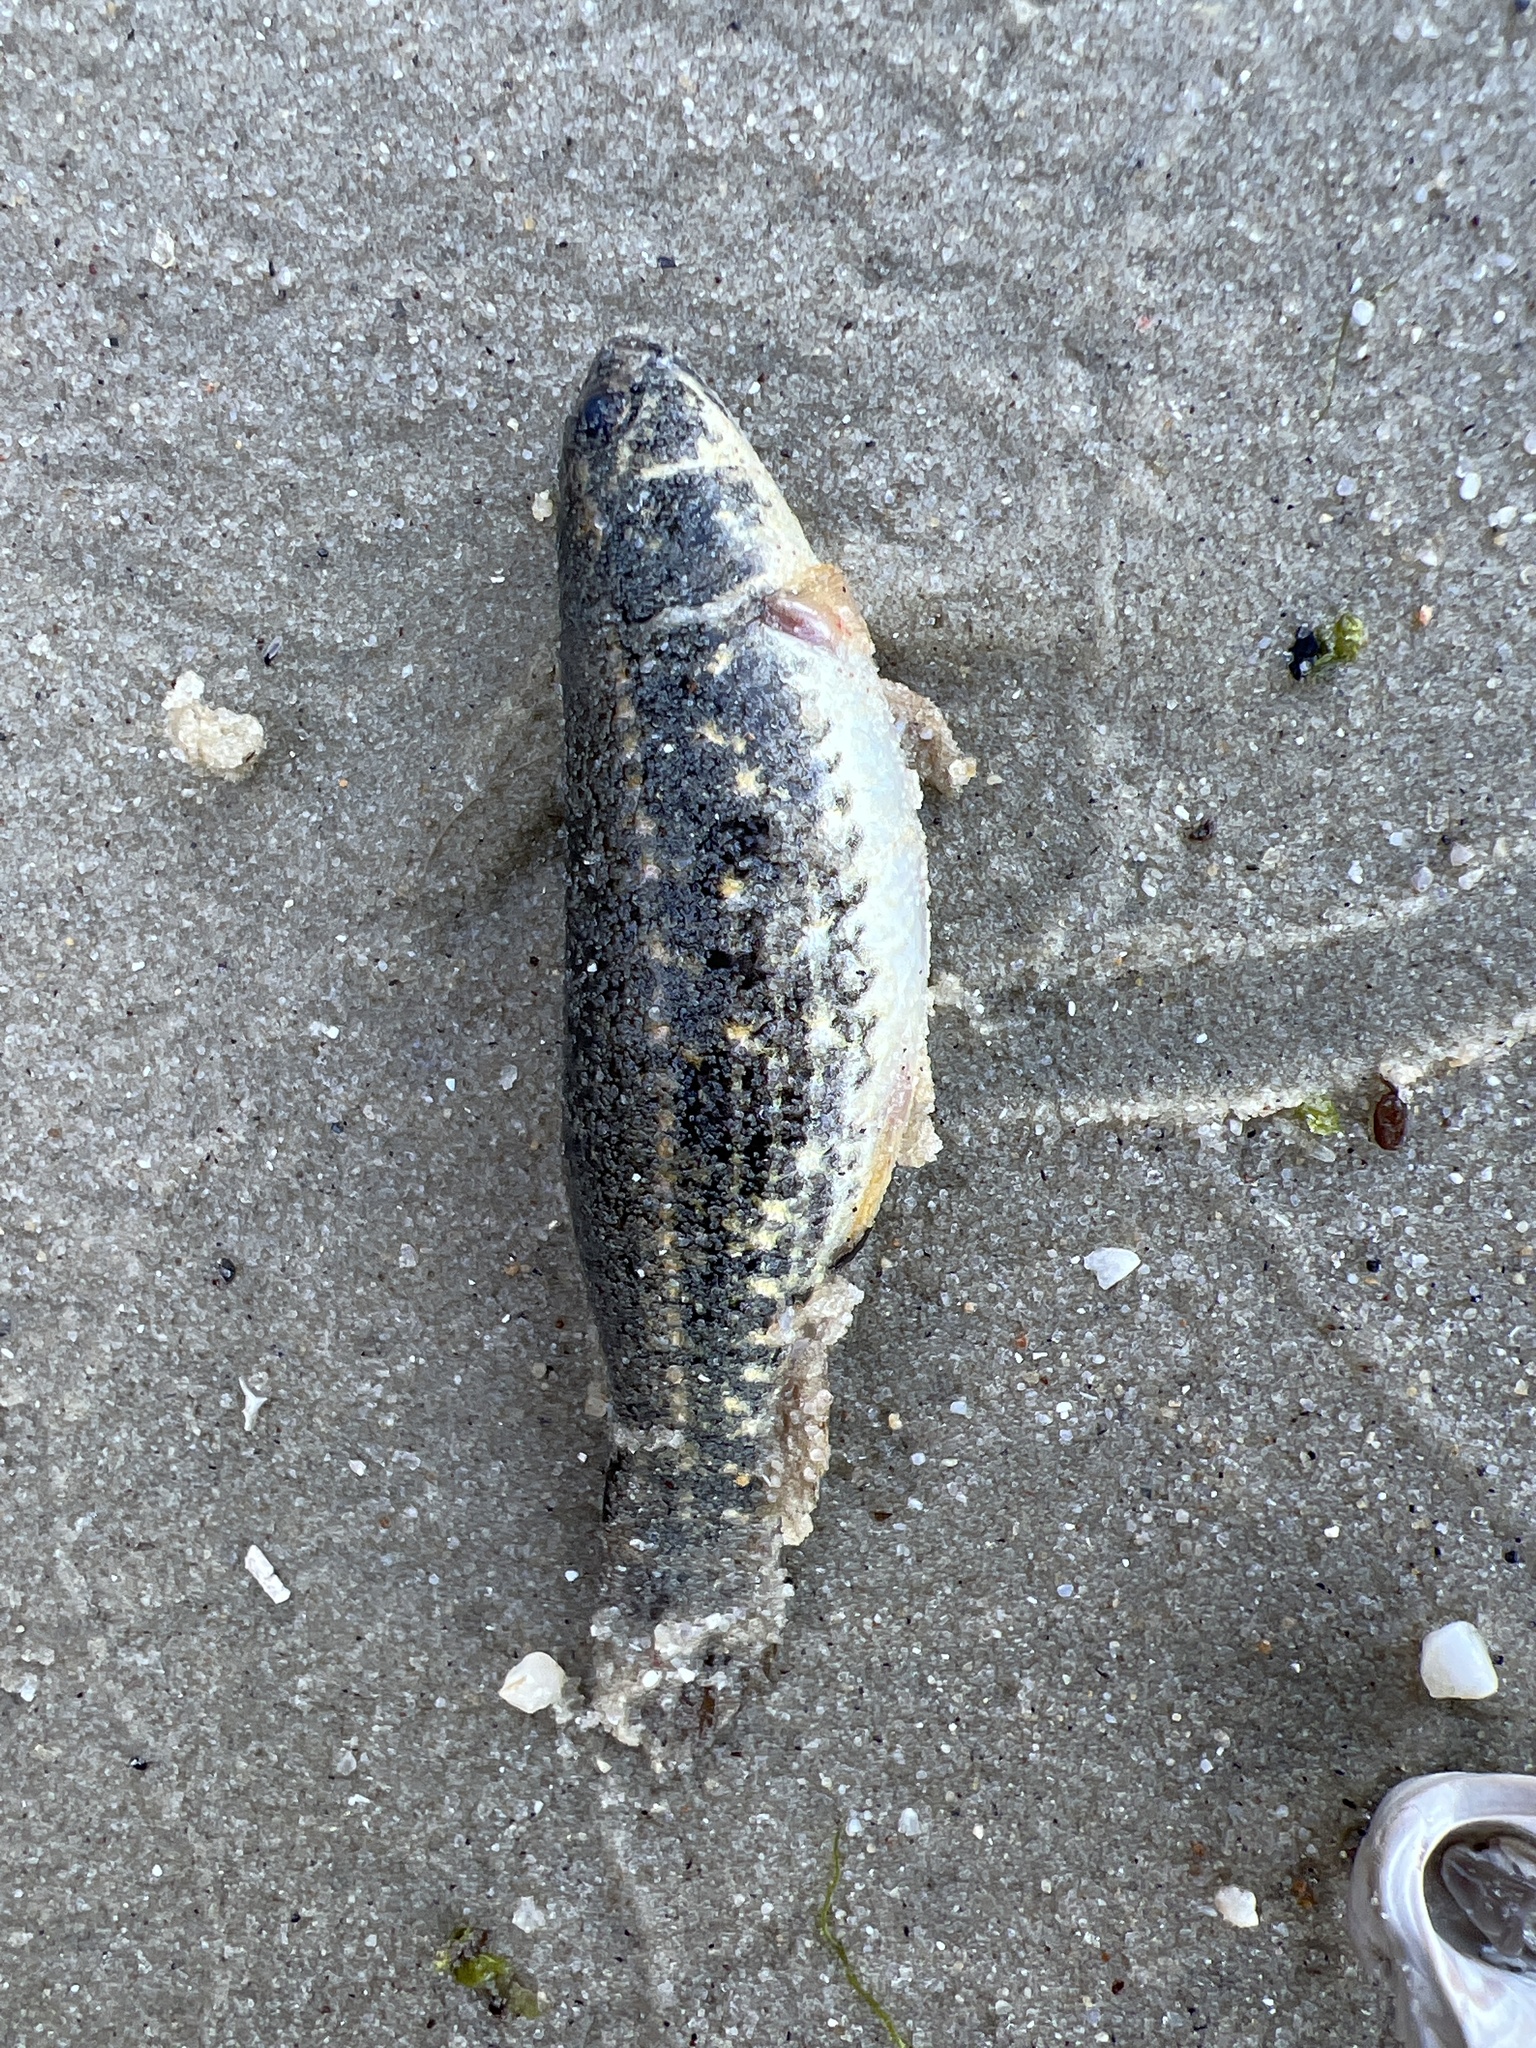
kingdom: Animalia
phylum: Chordata
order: Esociformes
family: Umbridae
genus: Umbra
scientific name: Umbra pygmaea
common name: Eastern mudminnow
